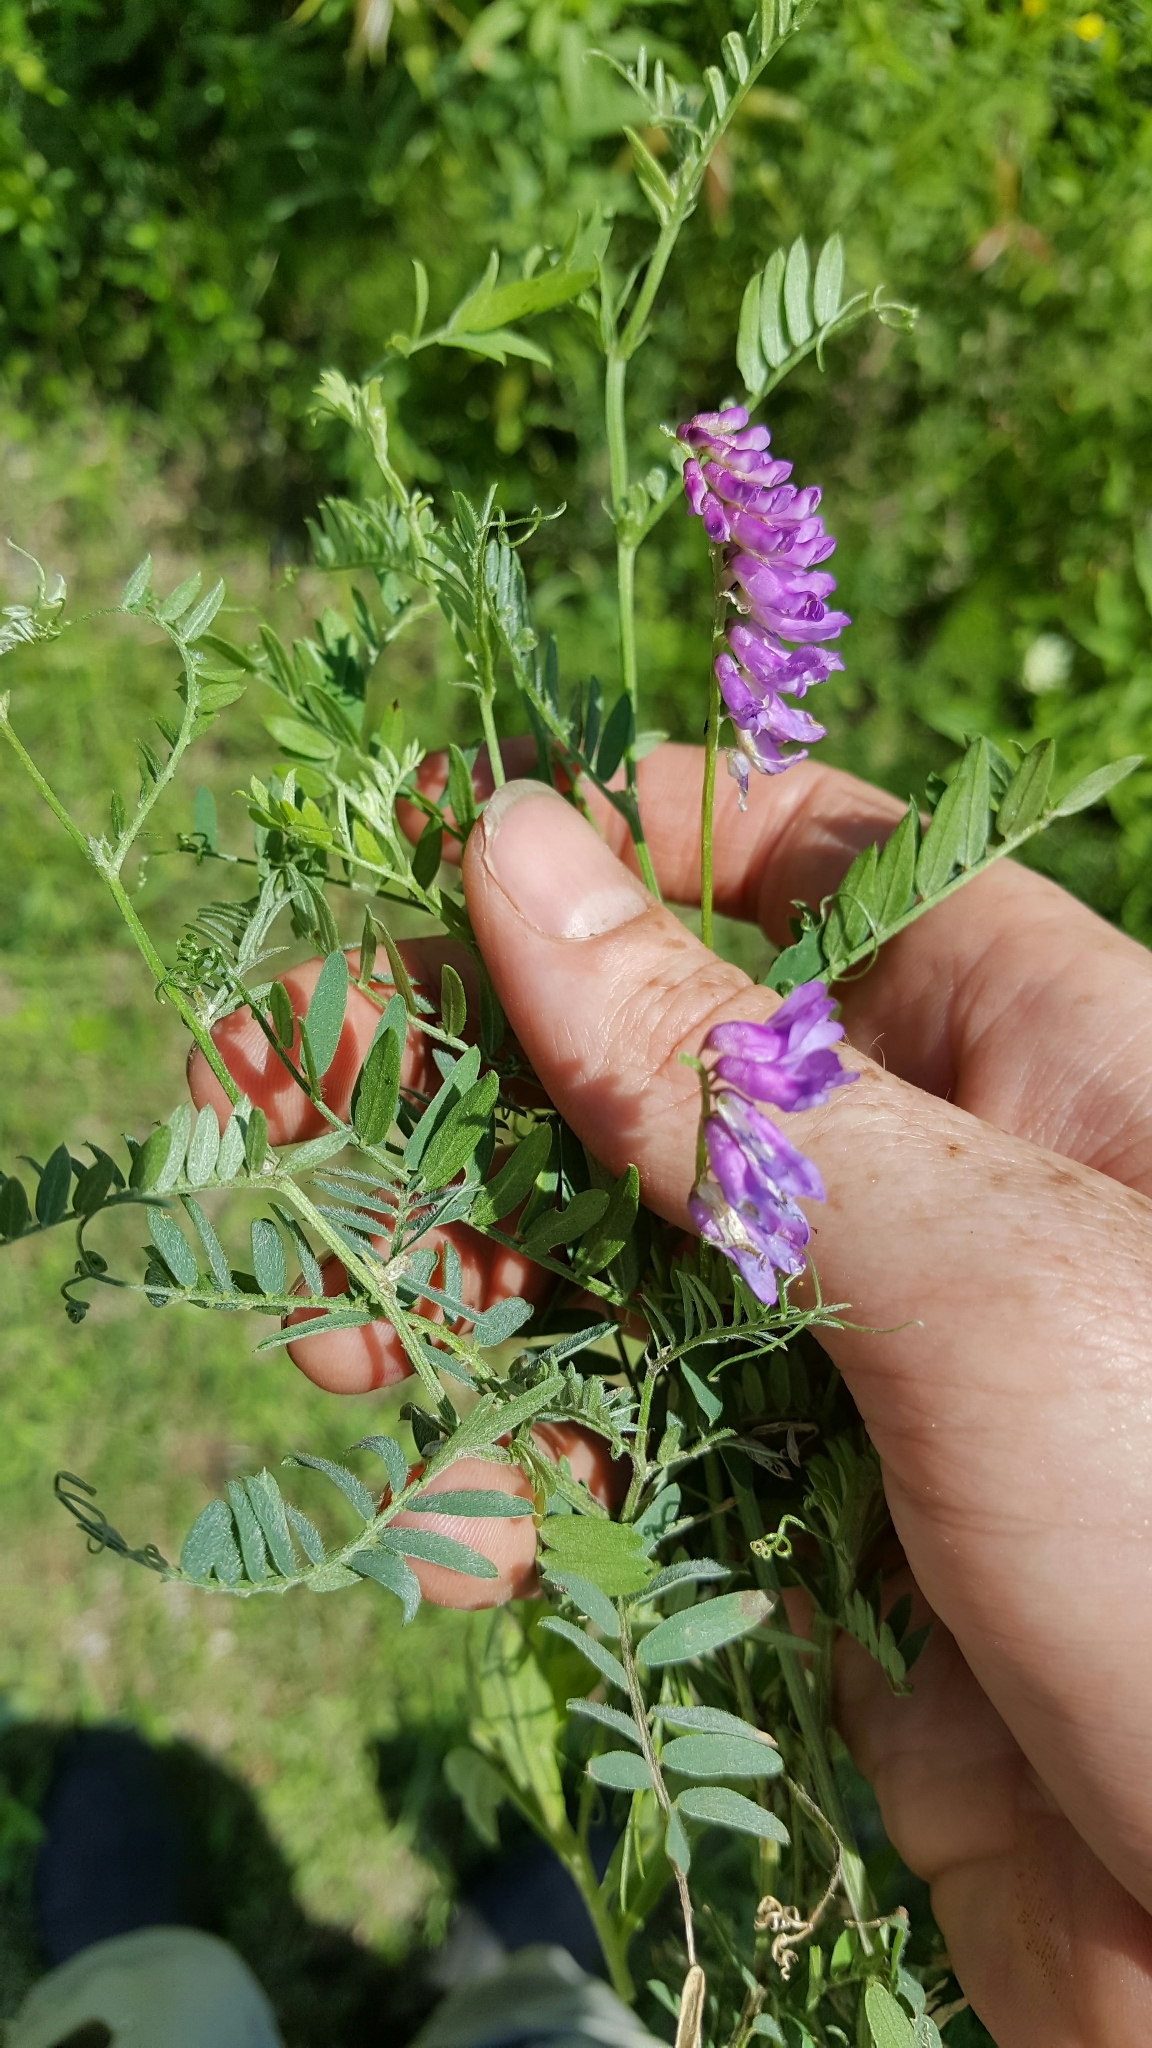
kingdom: Plantae
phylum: Tracheophyta
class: Magnoliopsida
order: Fabales
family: Fabaceae
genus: Vicia
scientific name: Vicia cracca
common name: Bird vetch
